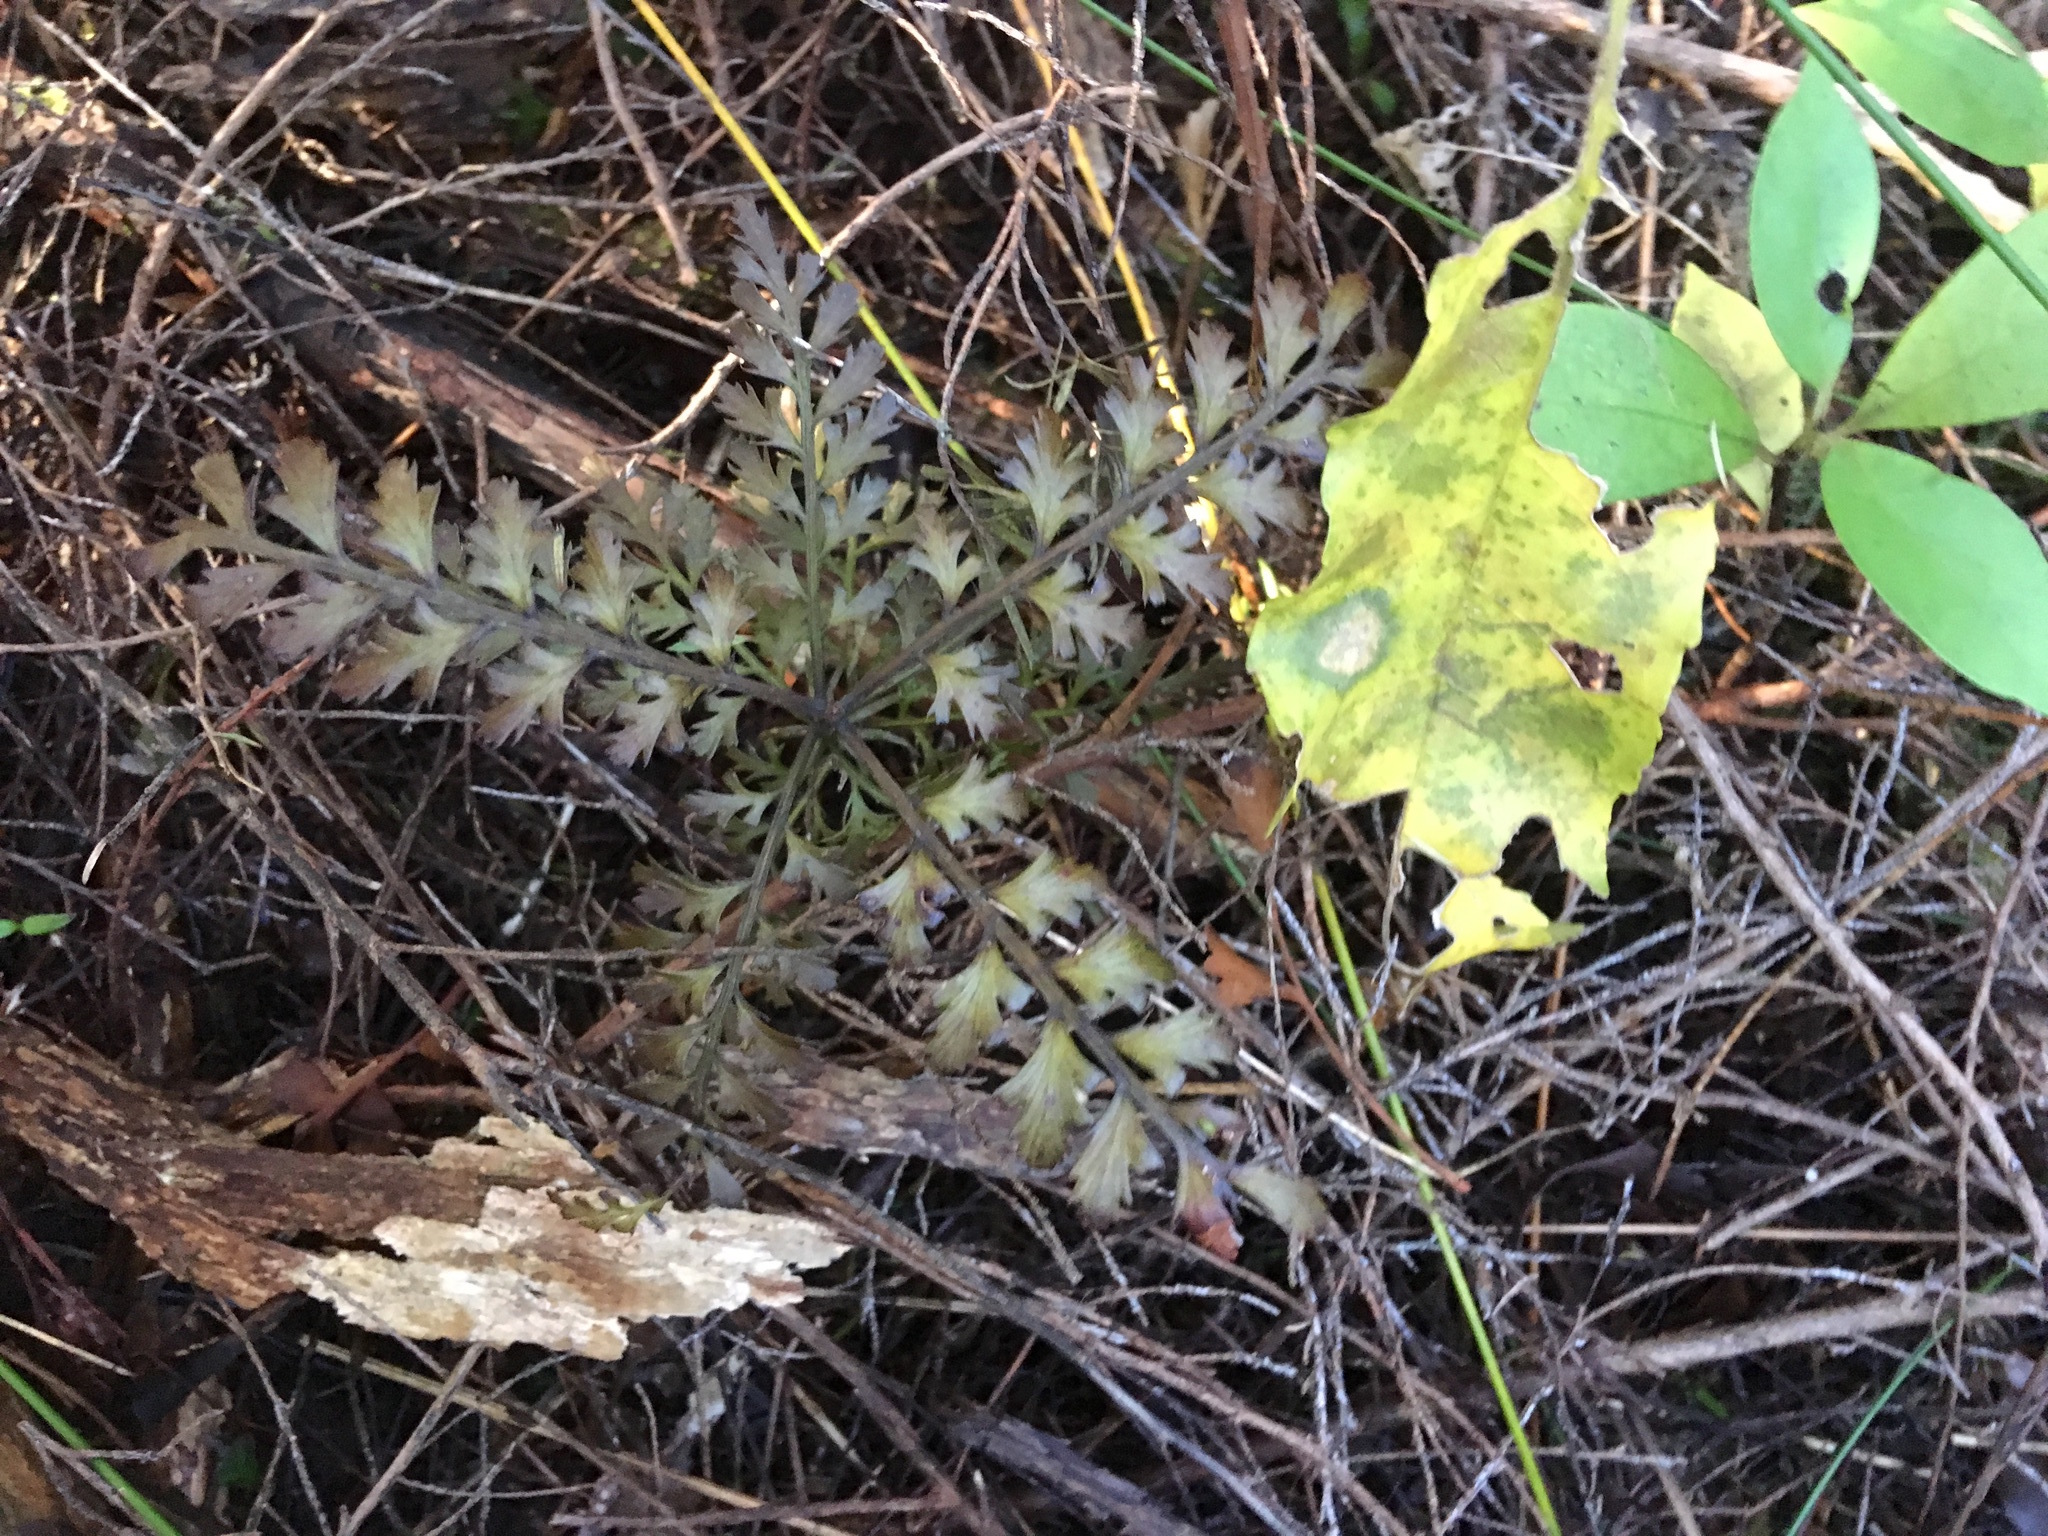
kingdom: Plantae
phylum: Tracheophyta
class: Pinopsida
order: Pinales
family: Phyllocladaceae
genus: Phyllocladus
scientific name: Phyllocladus trichomanoides
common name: Celery pine
